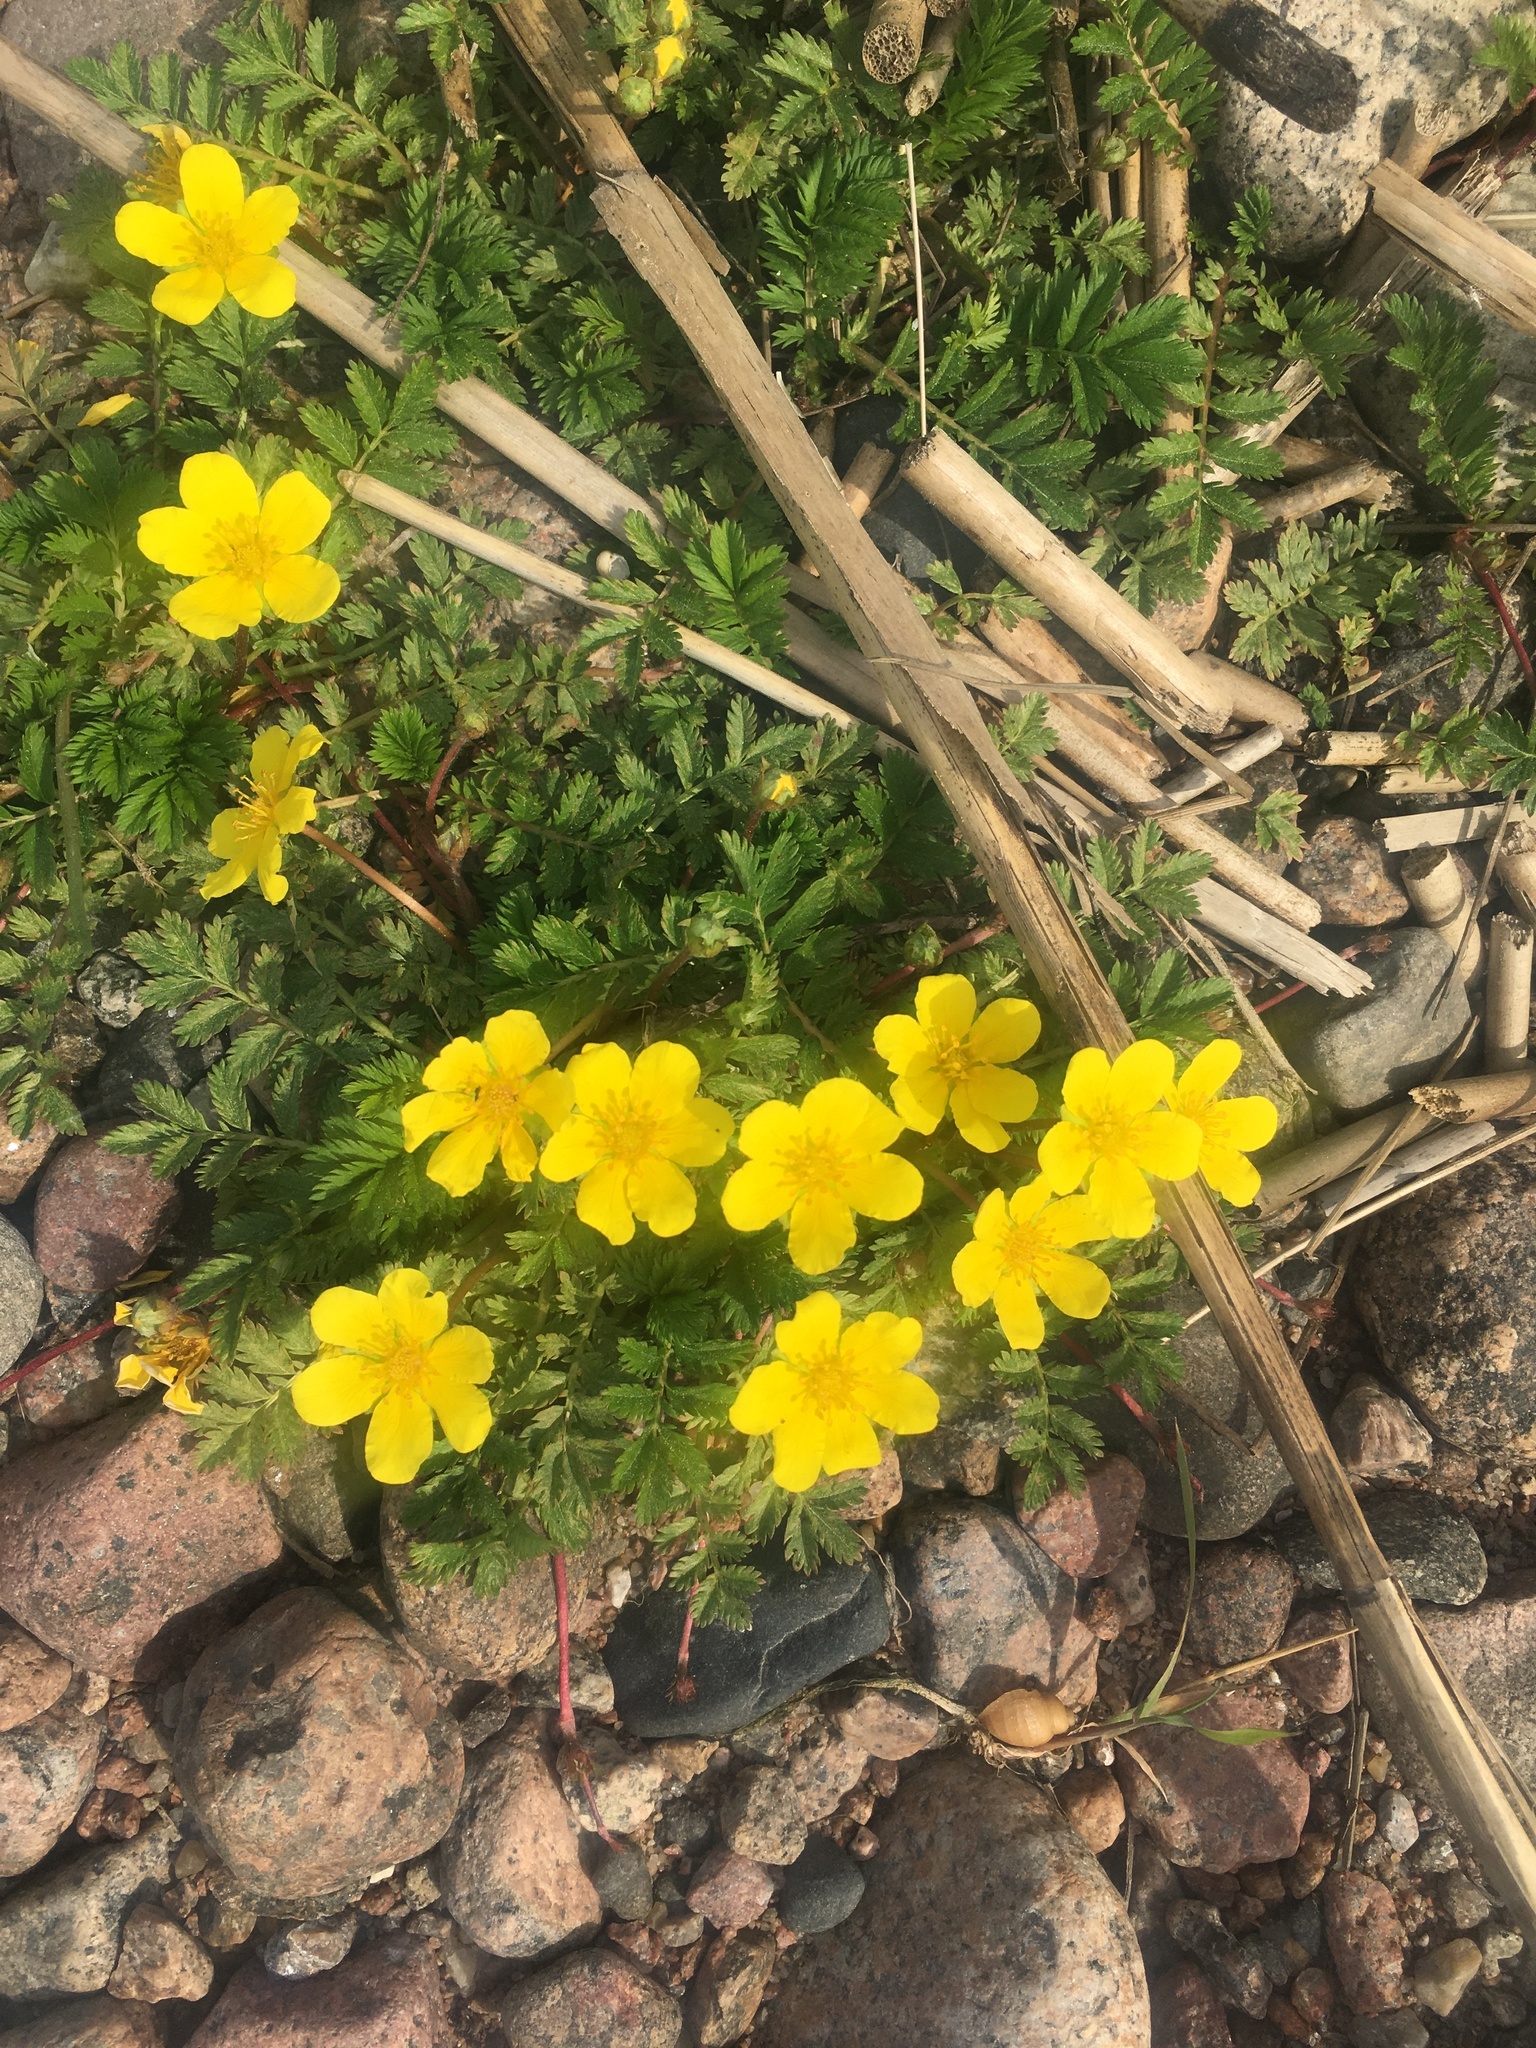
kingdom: Plantae
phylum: Tracheophyta
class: Magnoliopsida
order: Rosales
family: Rosaceae
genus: Argentina
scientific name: Argentina anserina
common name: Common silverweed
